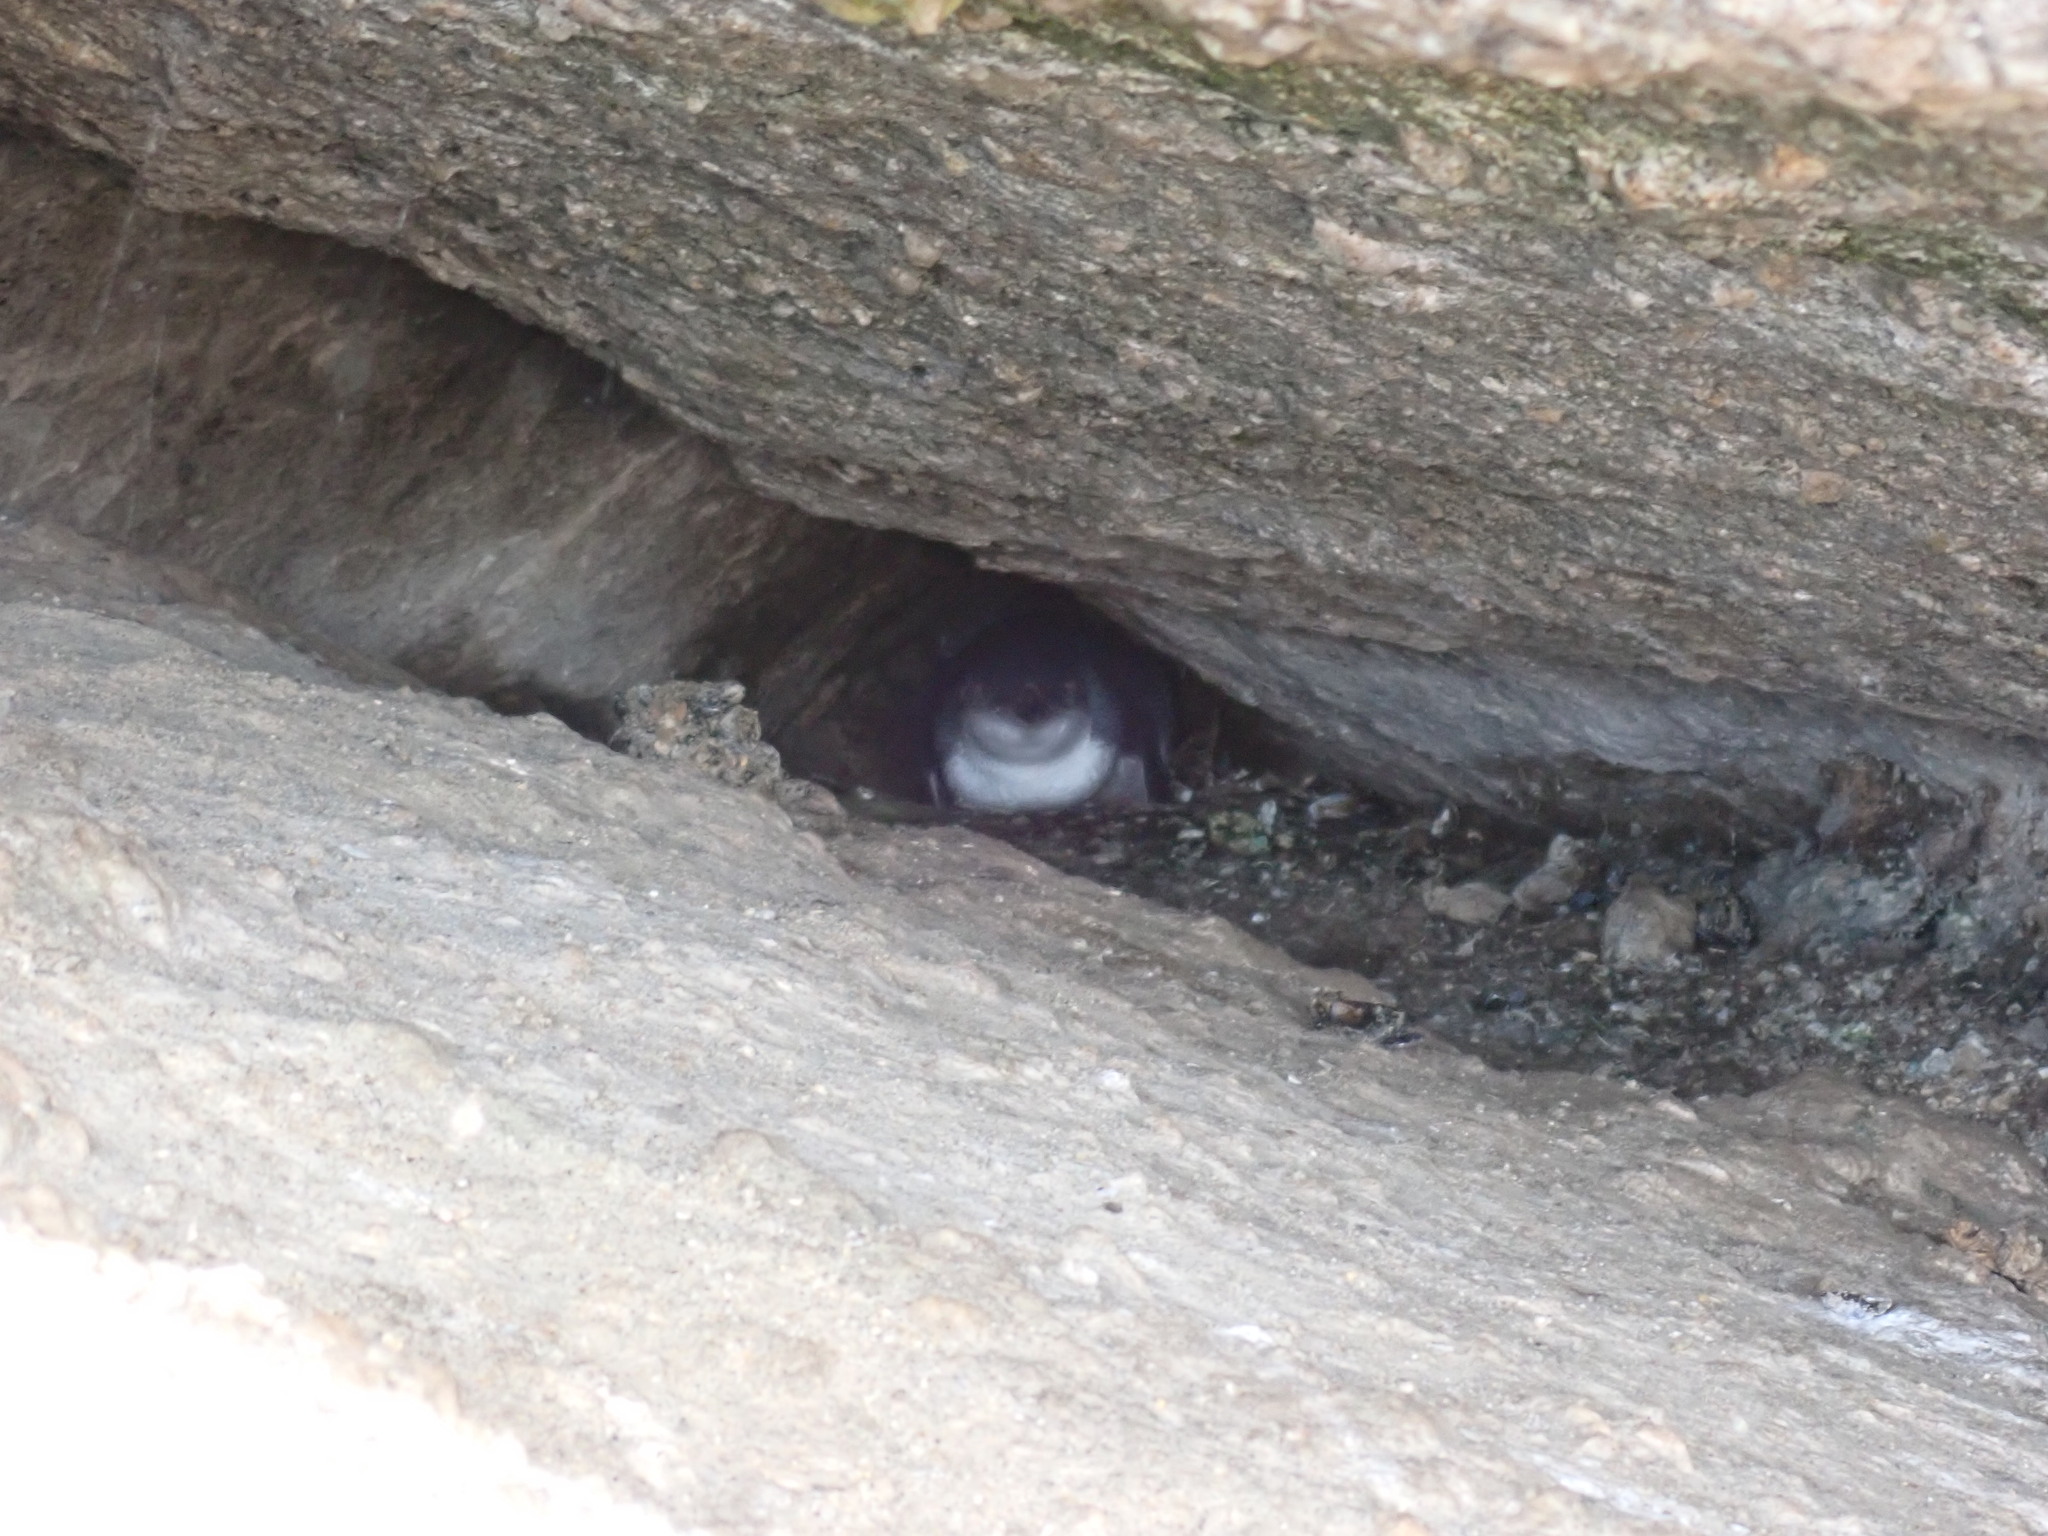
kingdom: Animalia
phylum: Chordata
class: Aves
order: Sphenisciformes
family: Spheniscidae
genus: Eudyptula
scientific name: Eudyptula minor
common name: Little penguin
